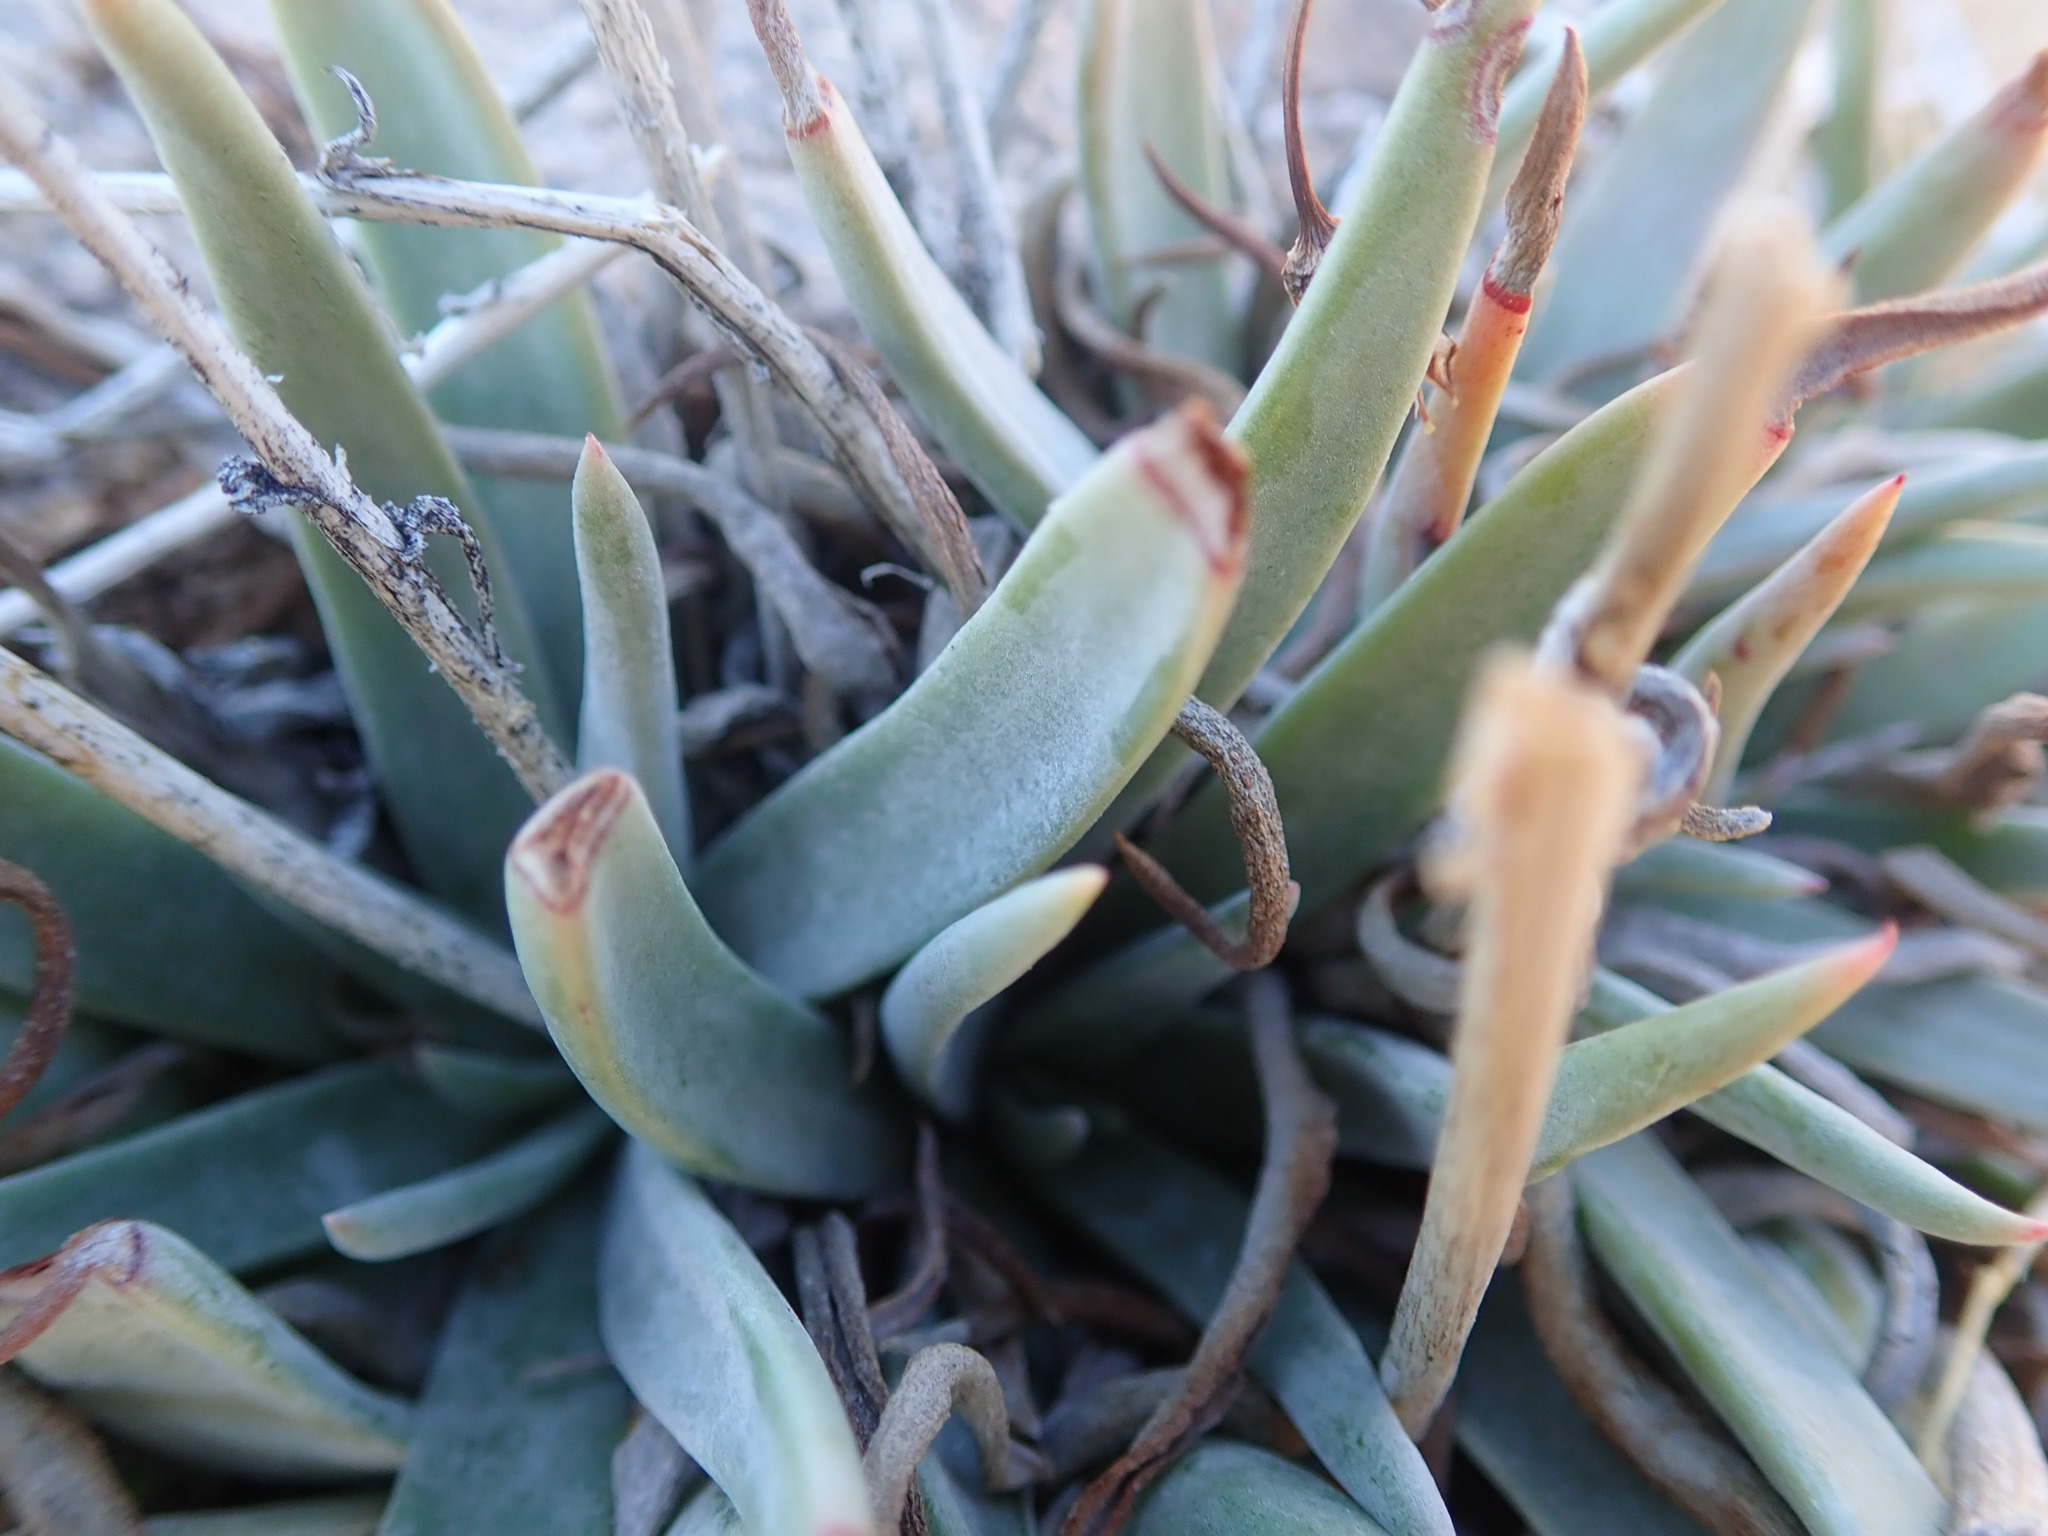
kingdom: Plantae
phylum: Tracheophyta
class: Magnoliopsida
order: Saxifragales
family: Crassulaceae
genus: Dudleya
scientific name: Dudleya saxosa
